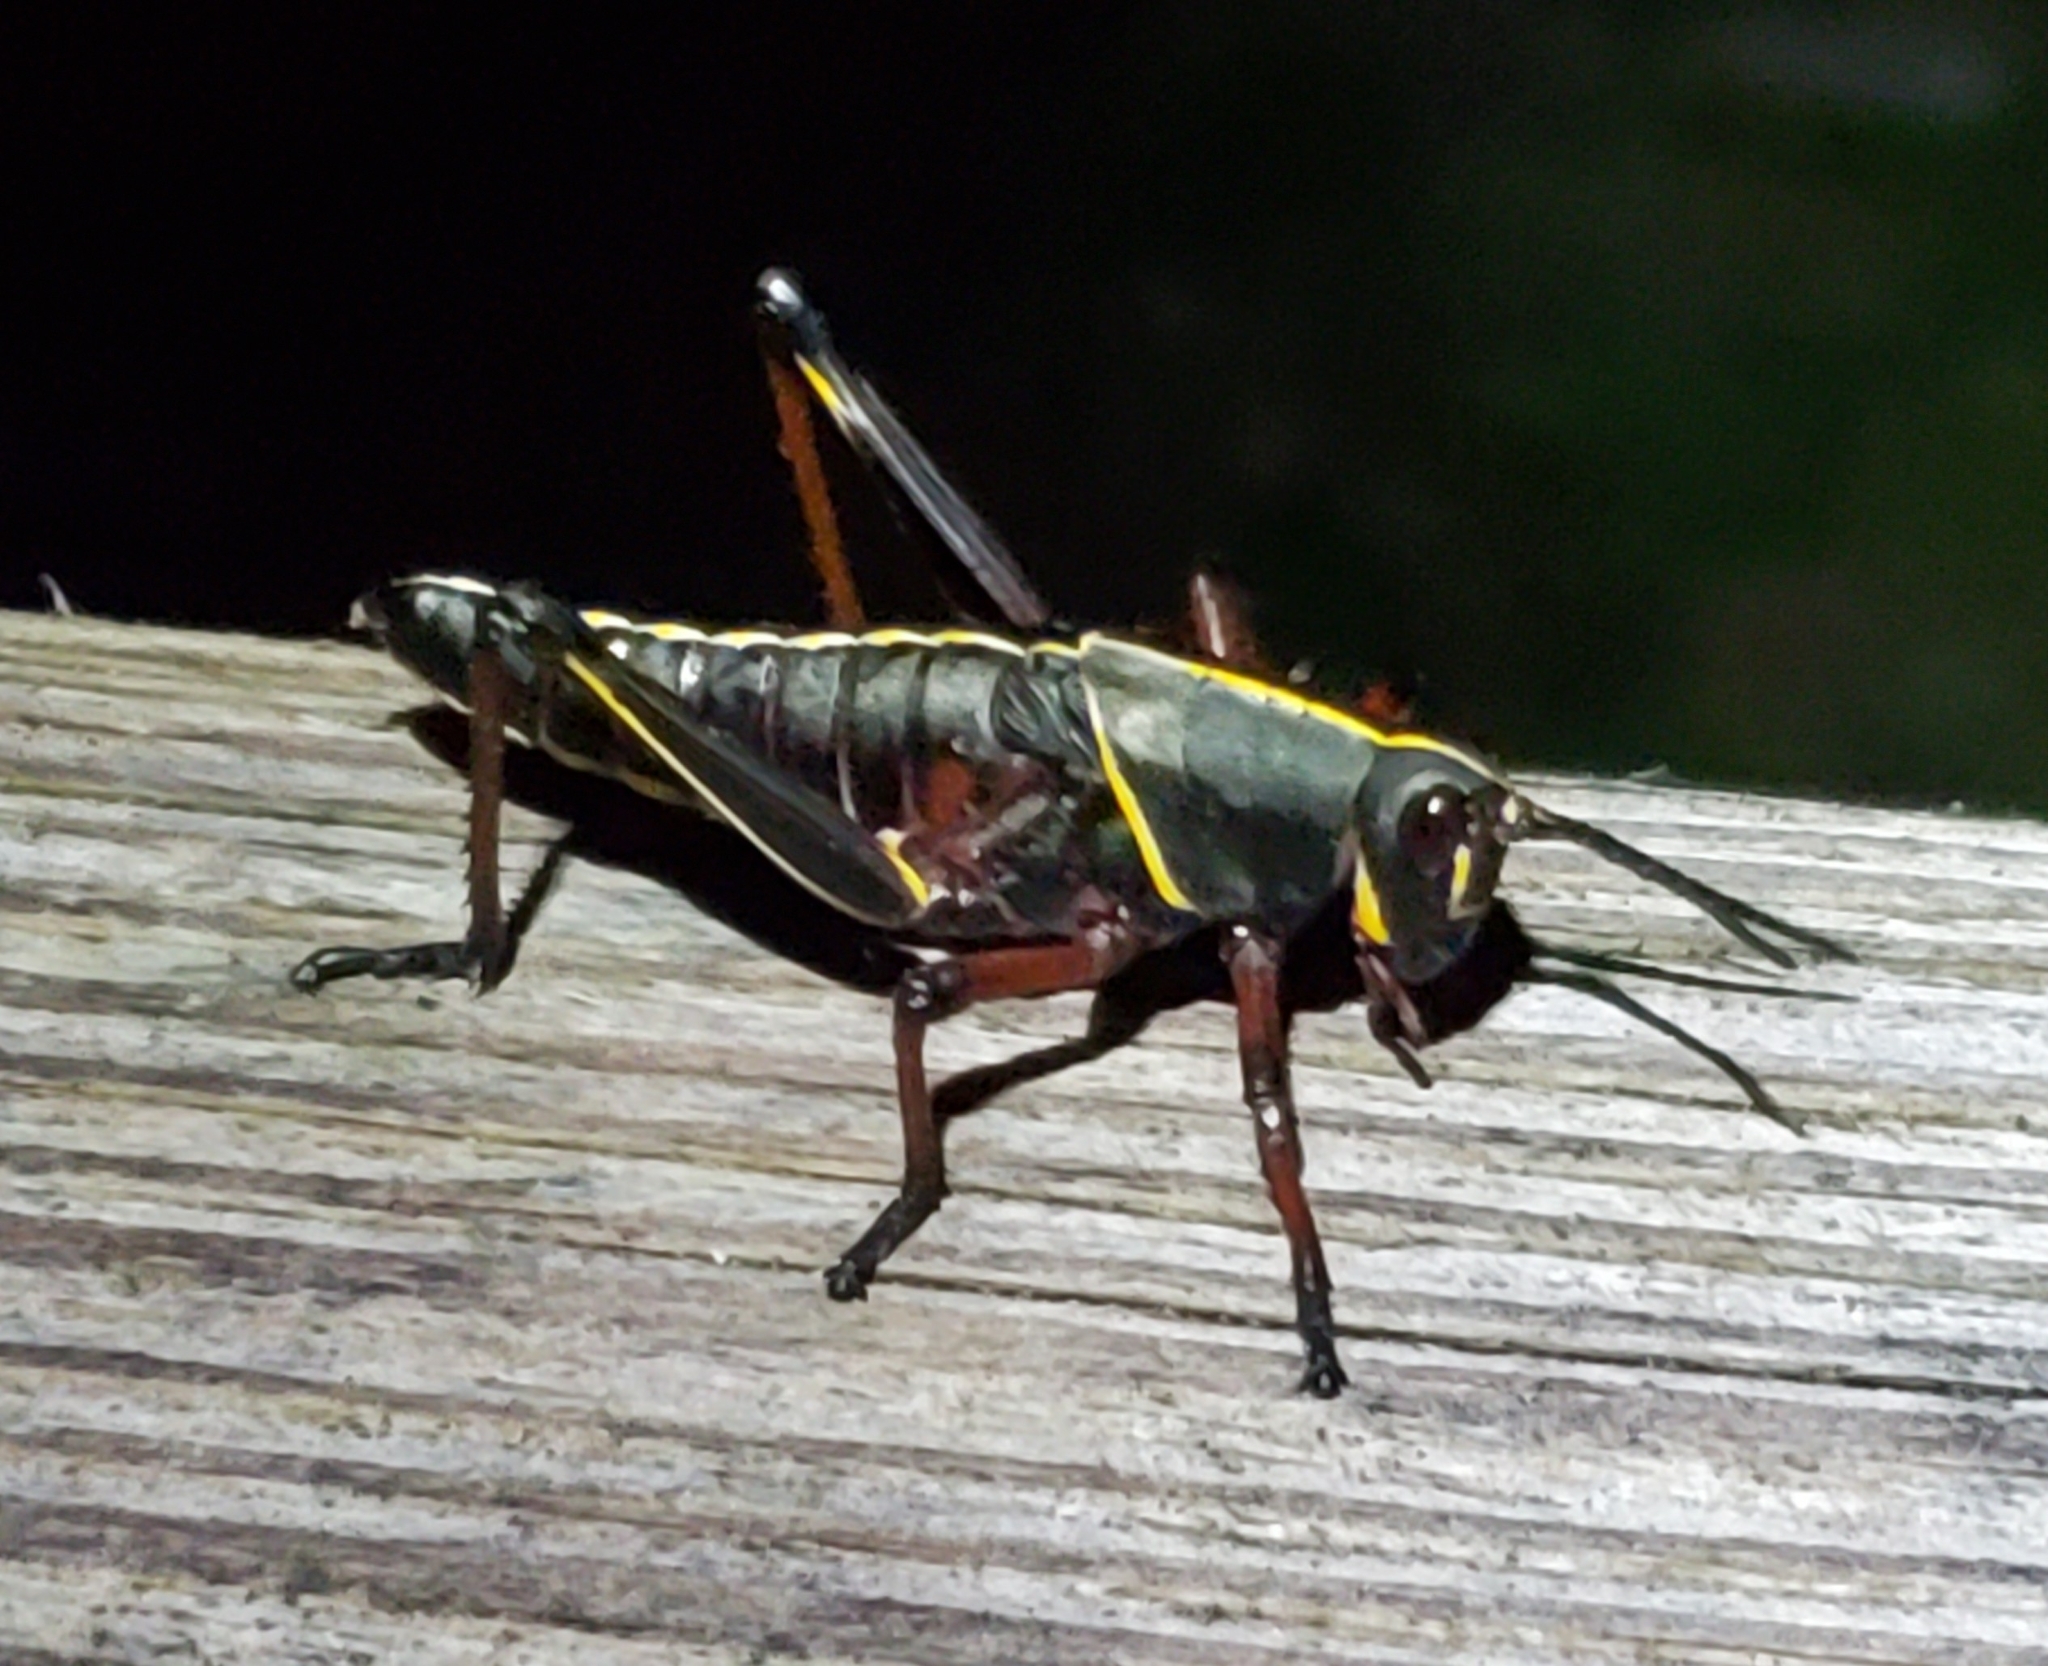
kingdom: Animalia
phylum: Arthropoda
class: Insecta
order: Orthoptera
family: Romaleidae
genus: Romalea
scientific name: Romalea microptera
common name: Eastern lubber grasshopper
